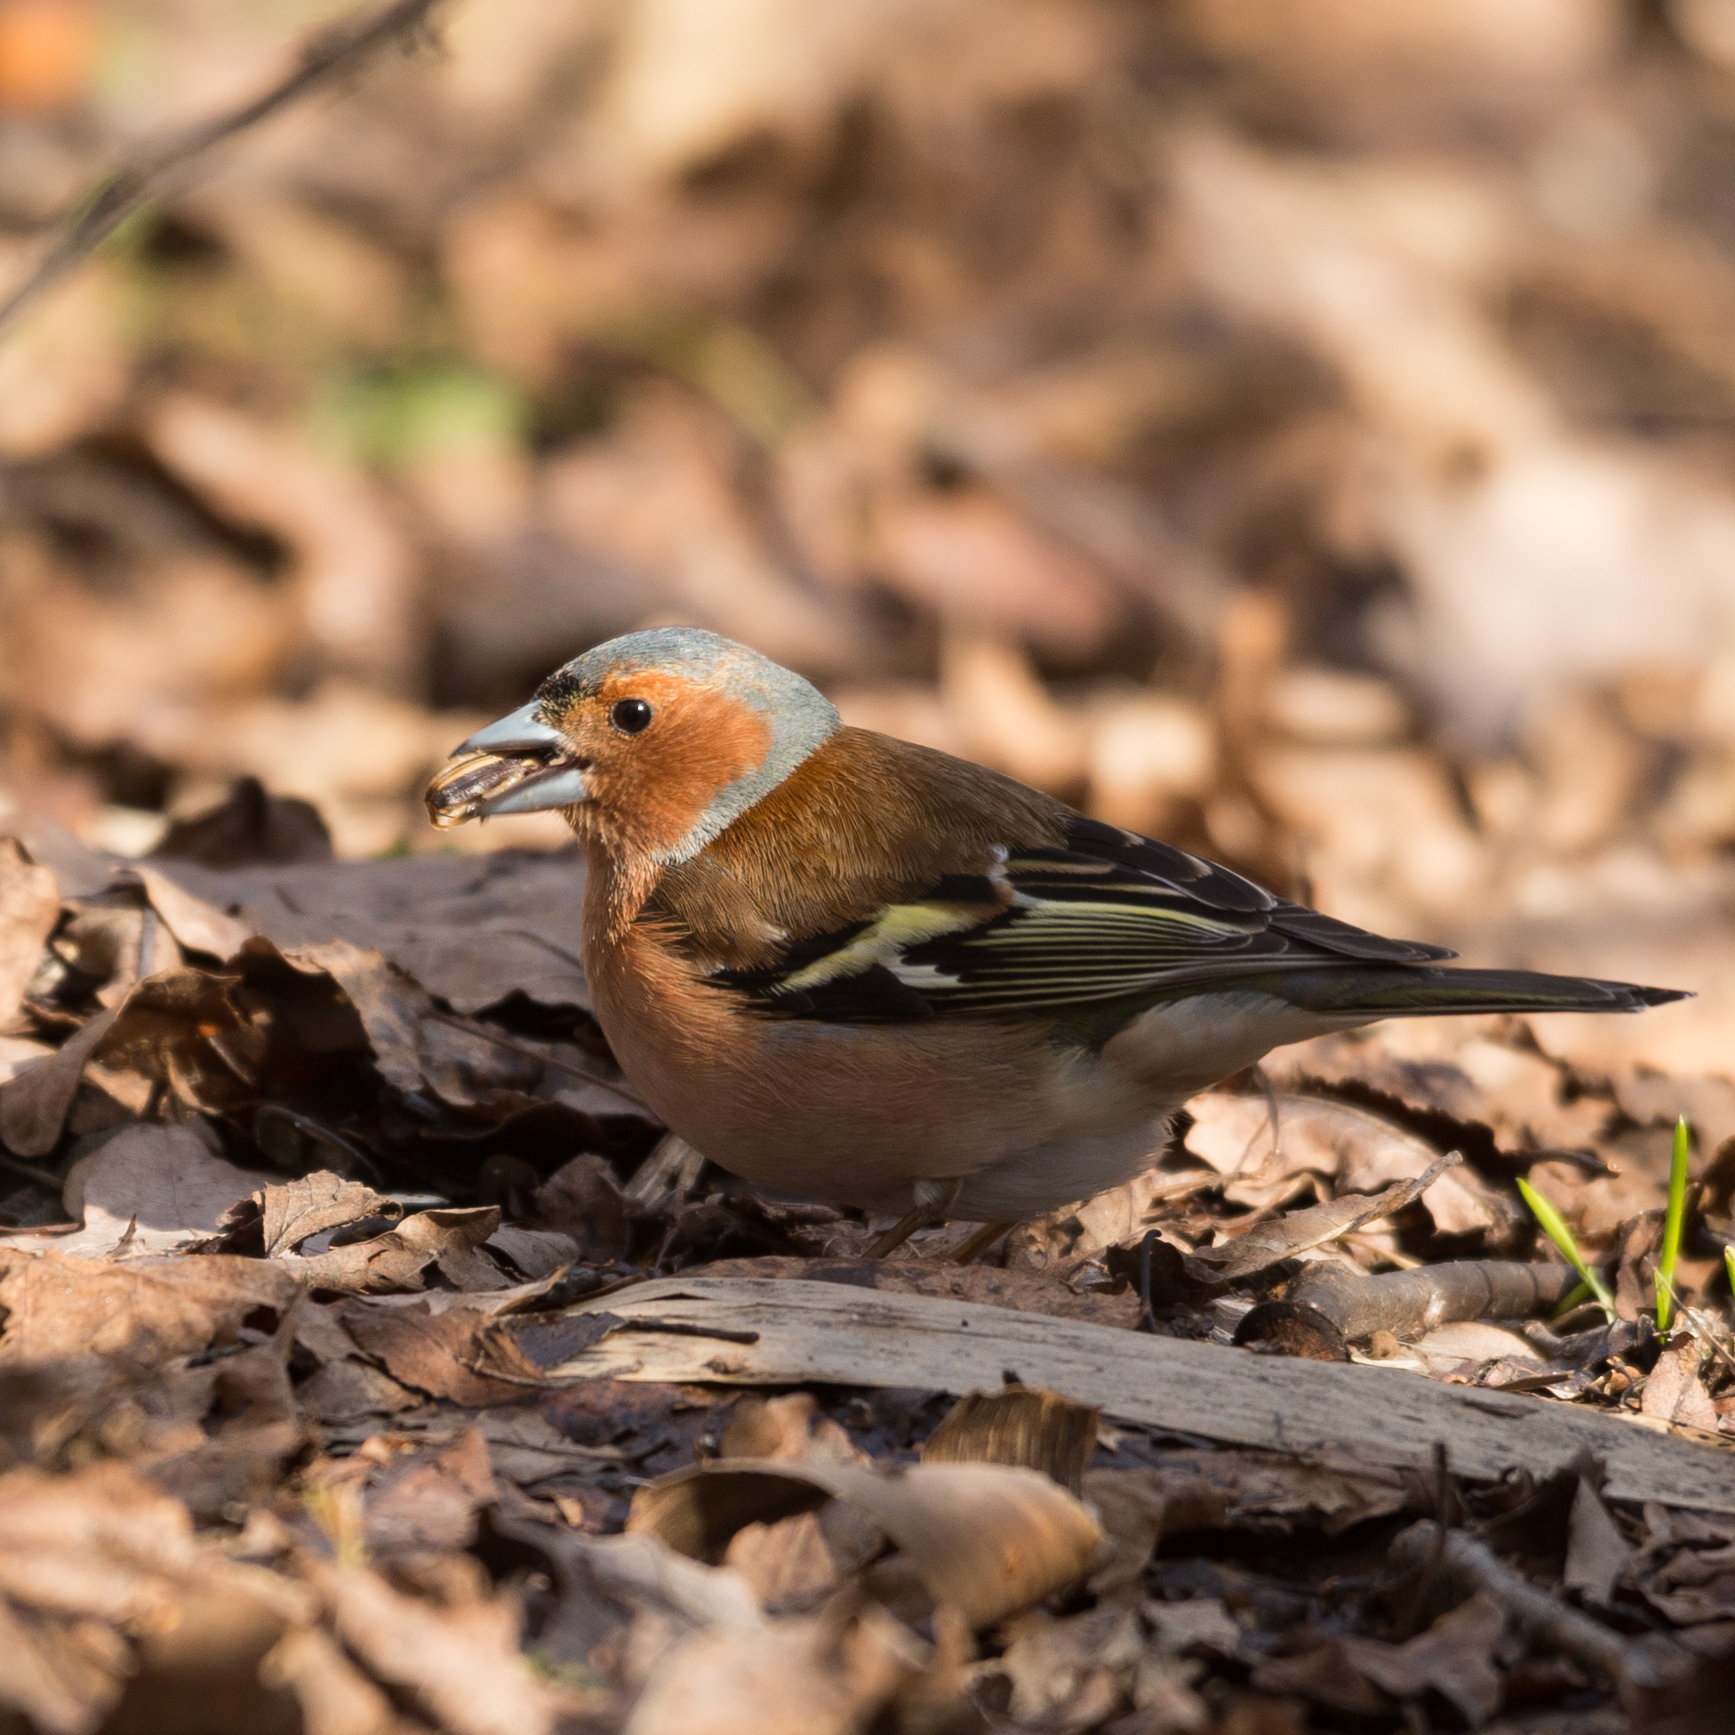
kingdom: Animalia
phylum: Chordata
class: Aves
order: Passeriformes
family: Fringillidae
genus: Fringilla
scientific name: Fringilla coelebs
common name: Common chaffinch
